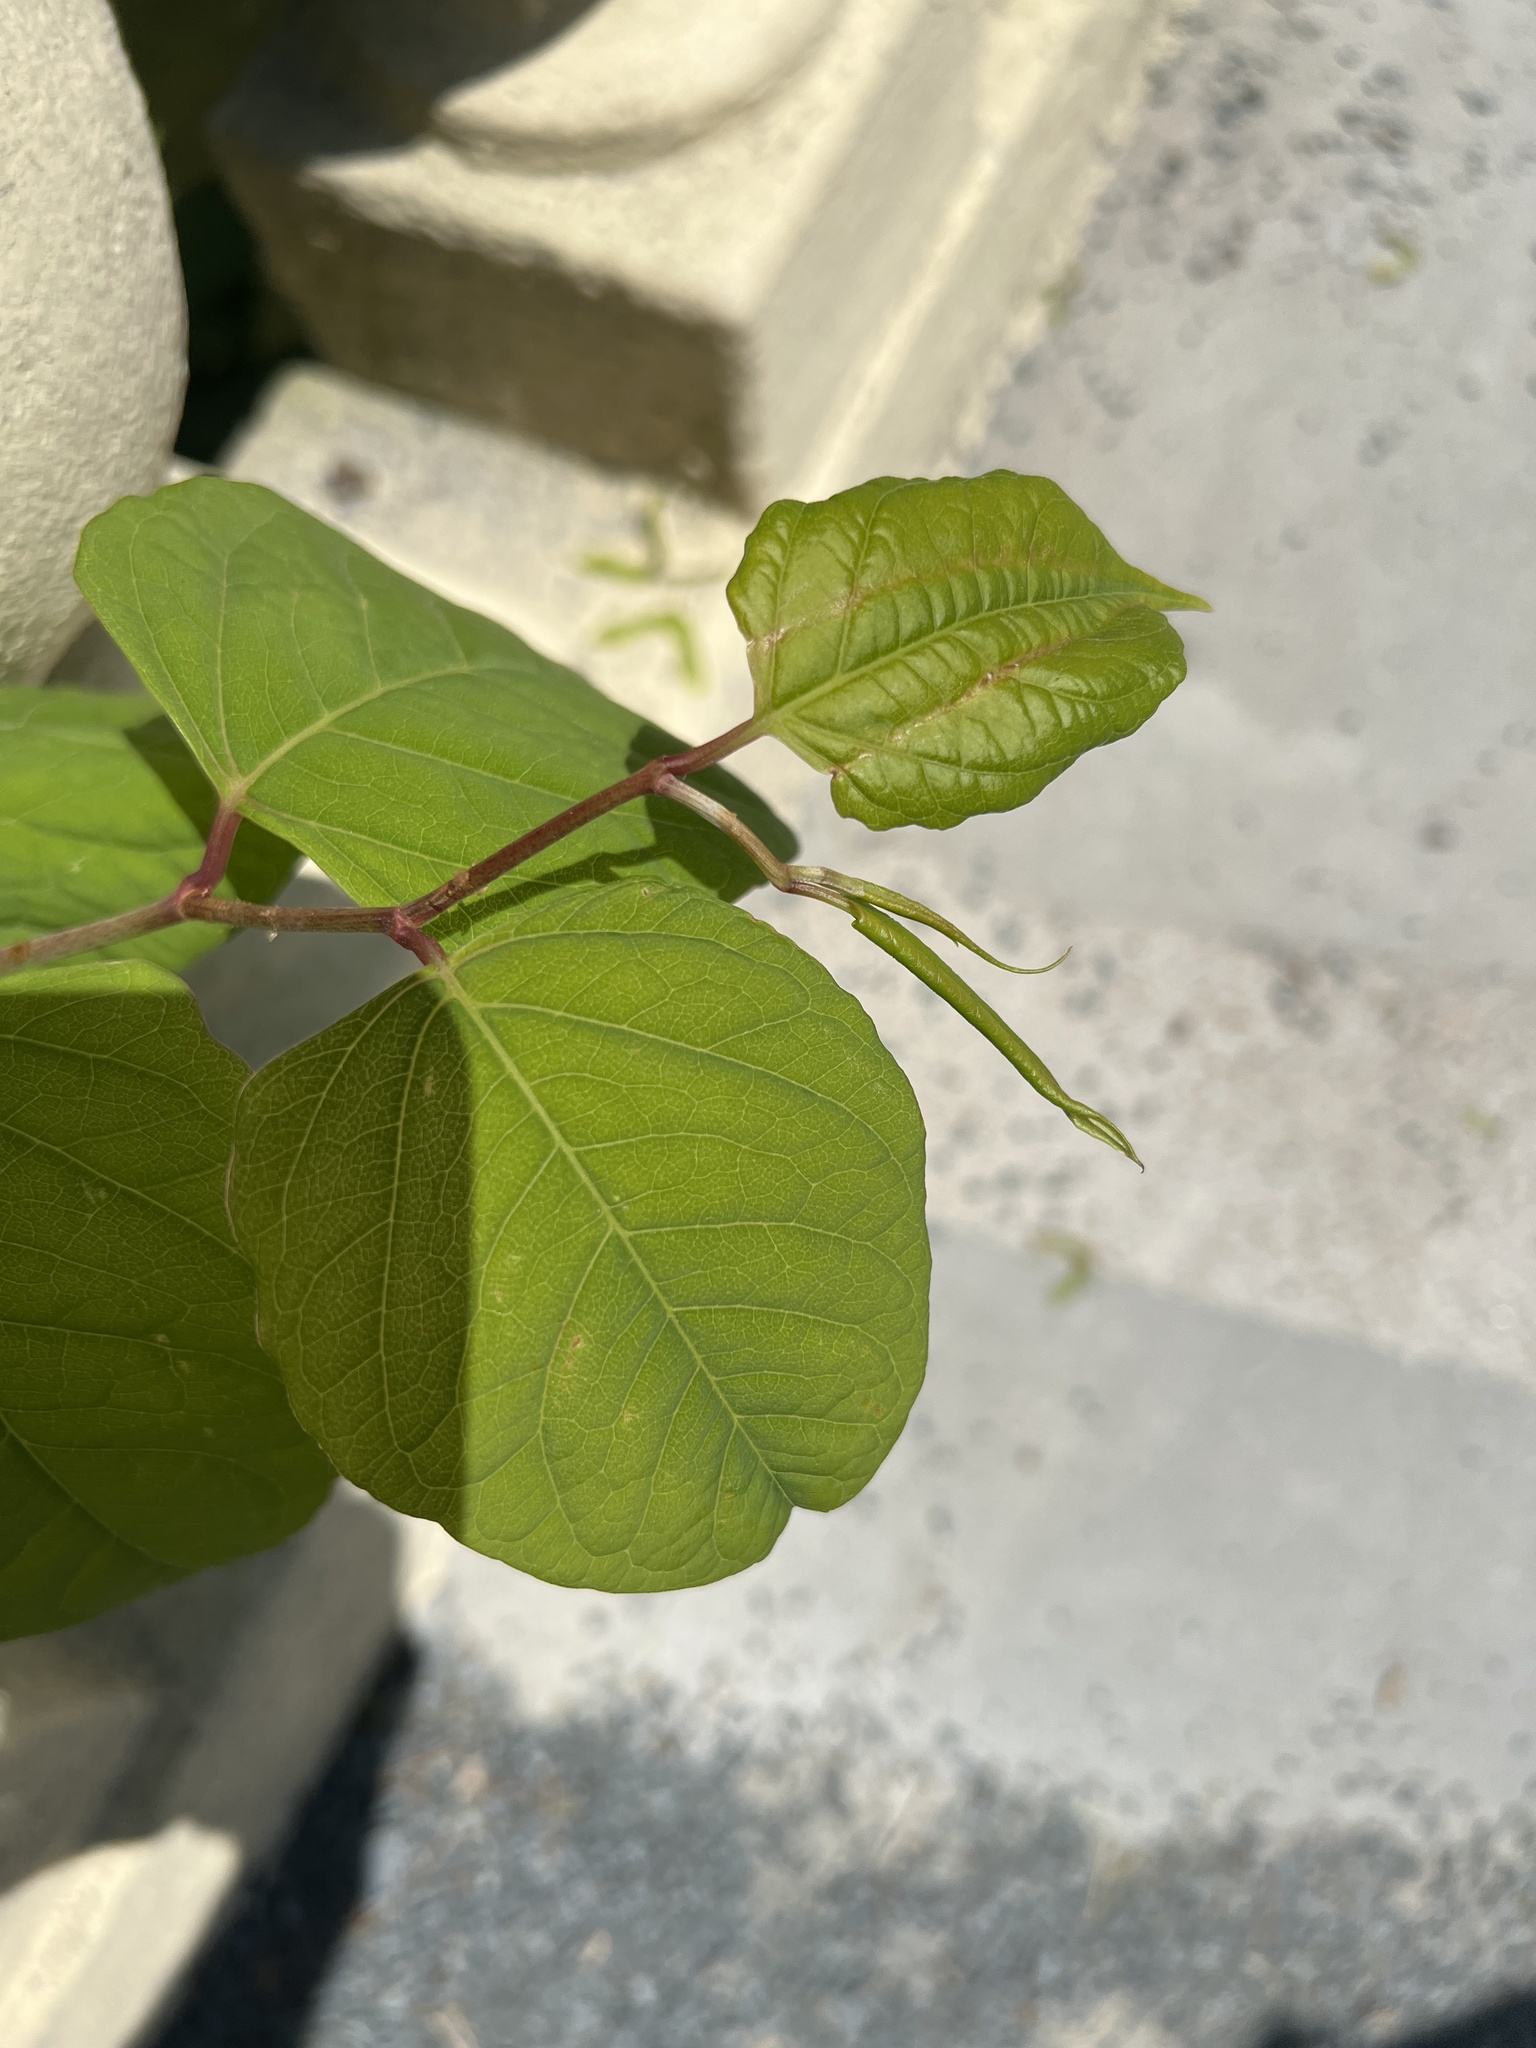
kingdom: Plantae
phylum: Tracheophyta
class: Magnoliopsida
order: Caryophyllales
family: Polygonaceae
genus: Reynoutria
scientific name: Reynoutria japonica
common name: Japanese knotweed
